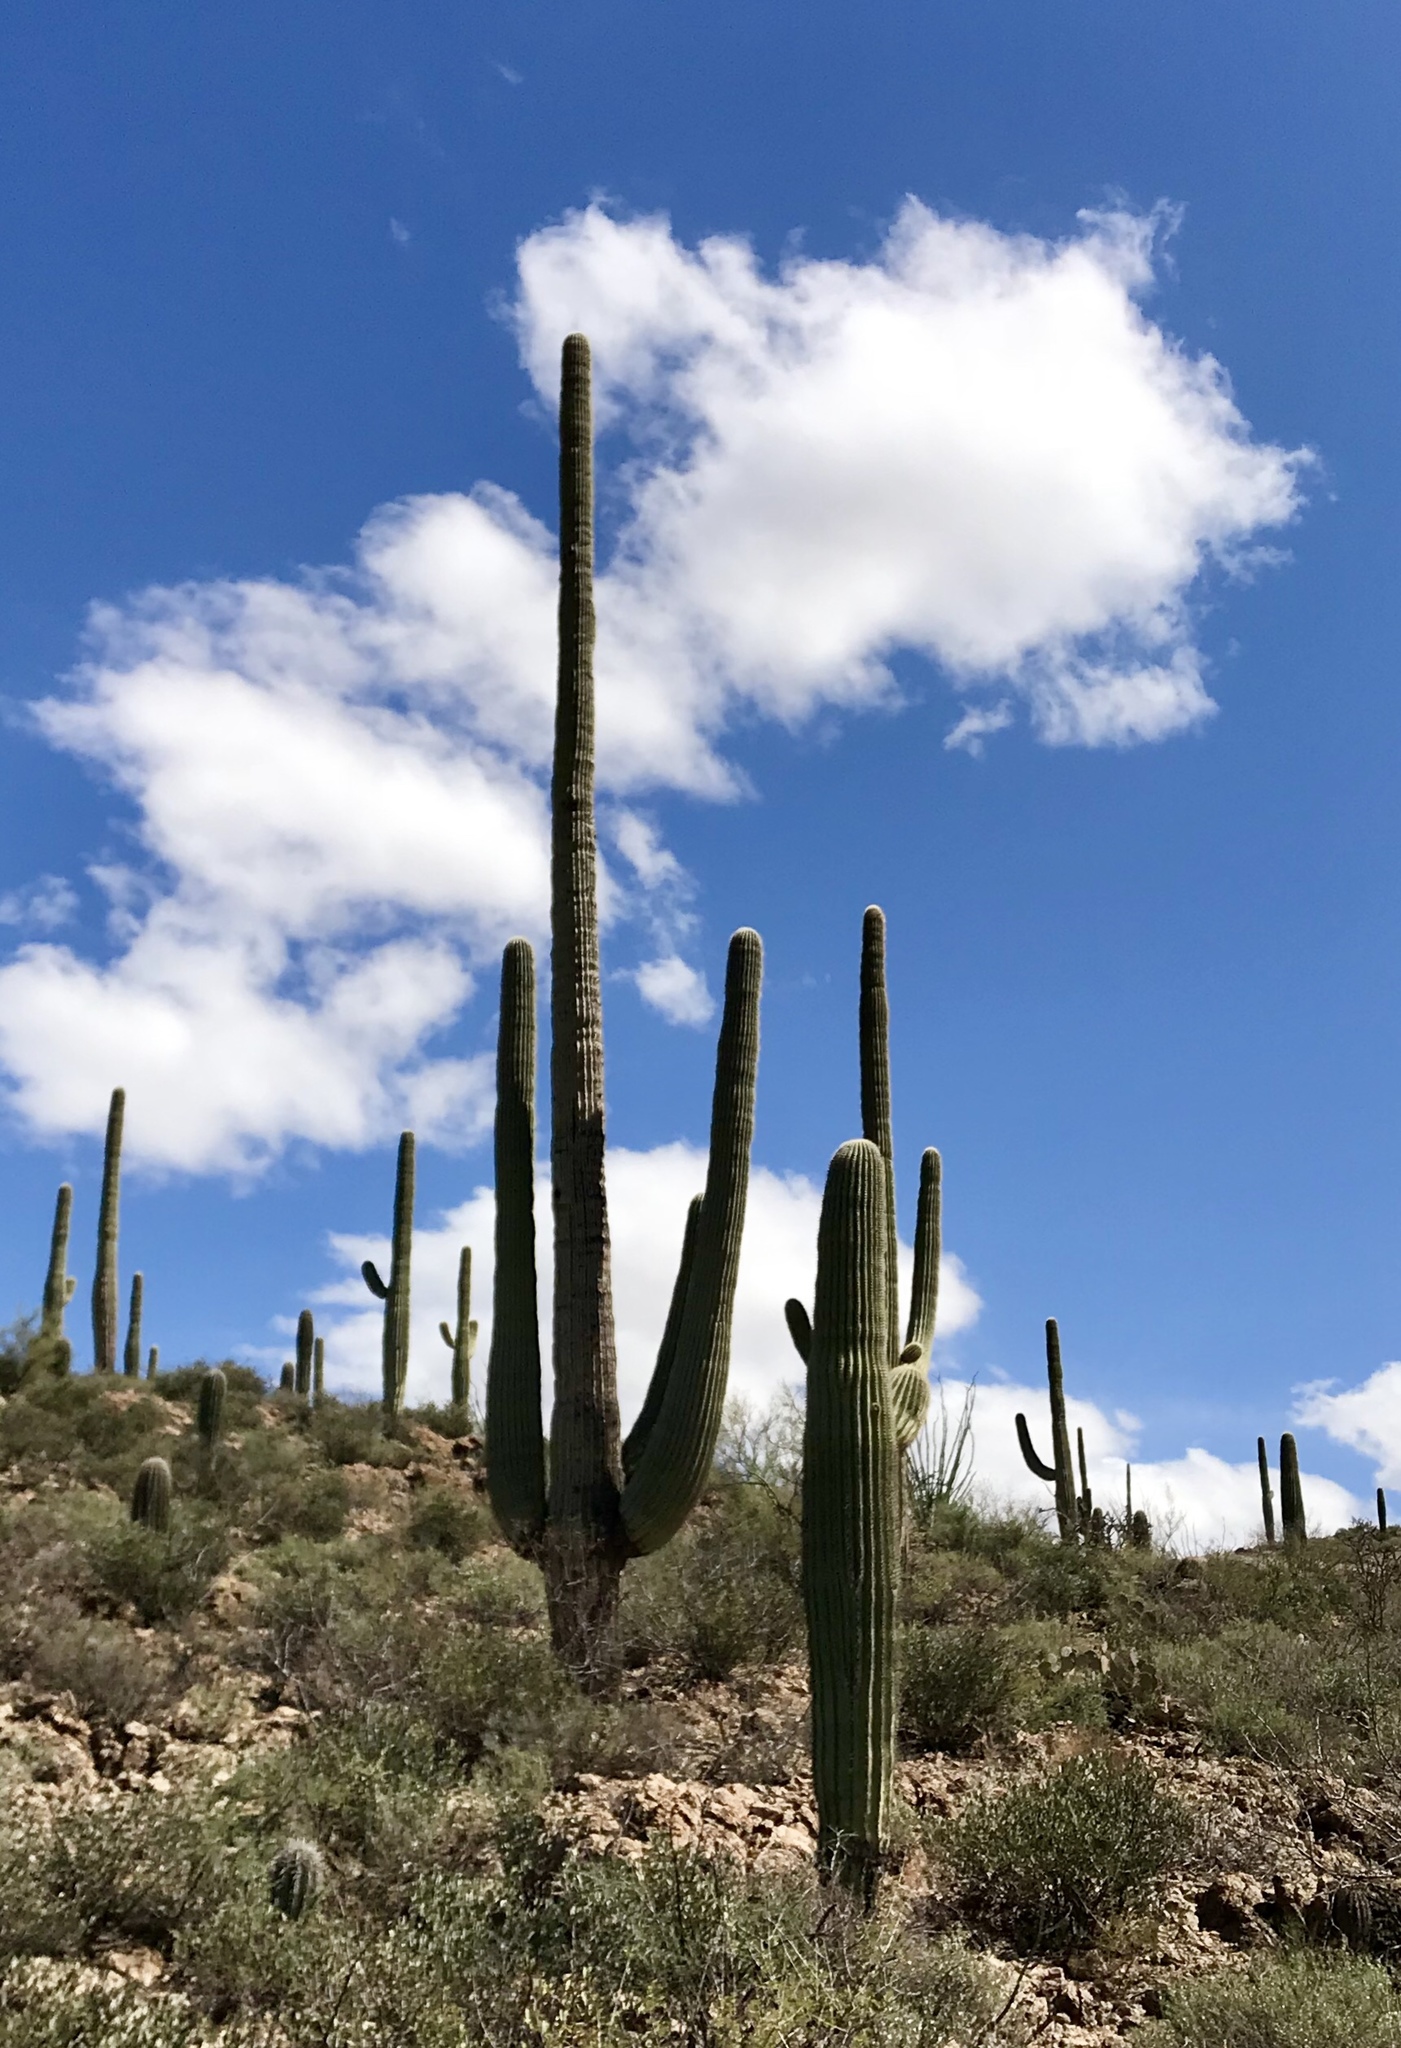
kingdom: Plantae
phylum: Tracheophyta
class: Magnoliopsida
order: Caryophyllales
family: Cactaceae
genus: Carnegiea
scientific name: Carnegiea gigantea
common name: Saguaro
